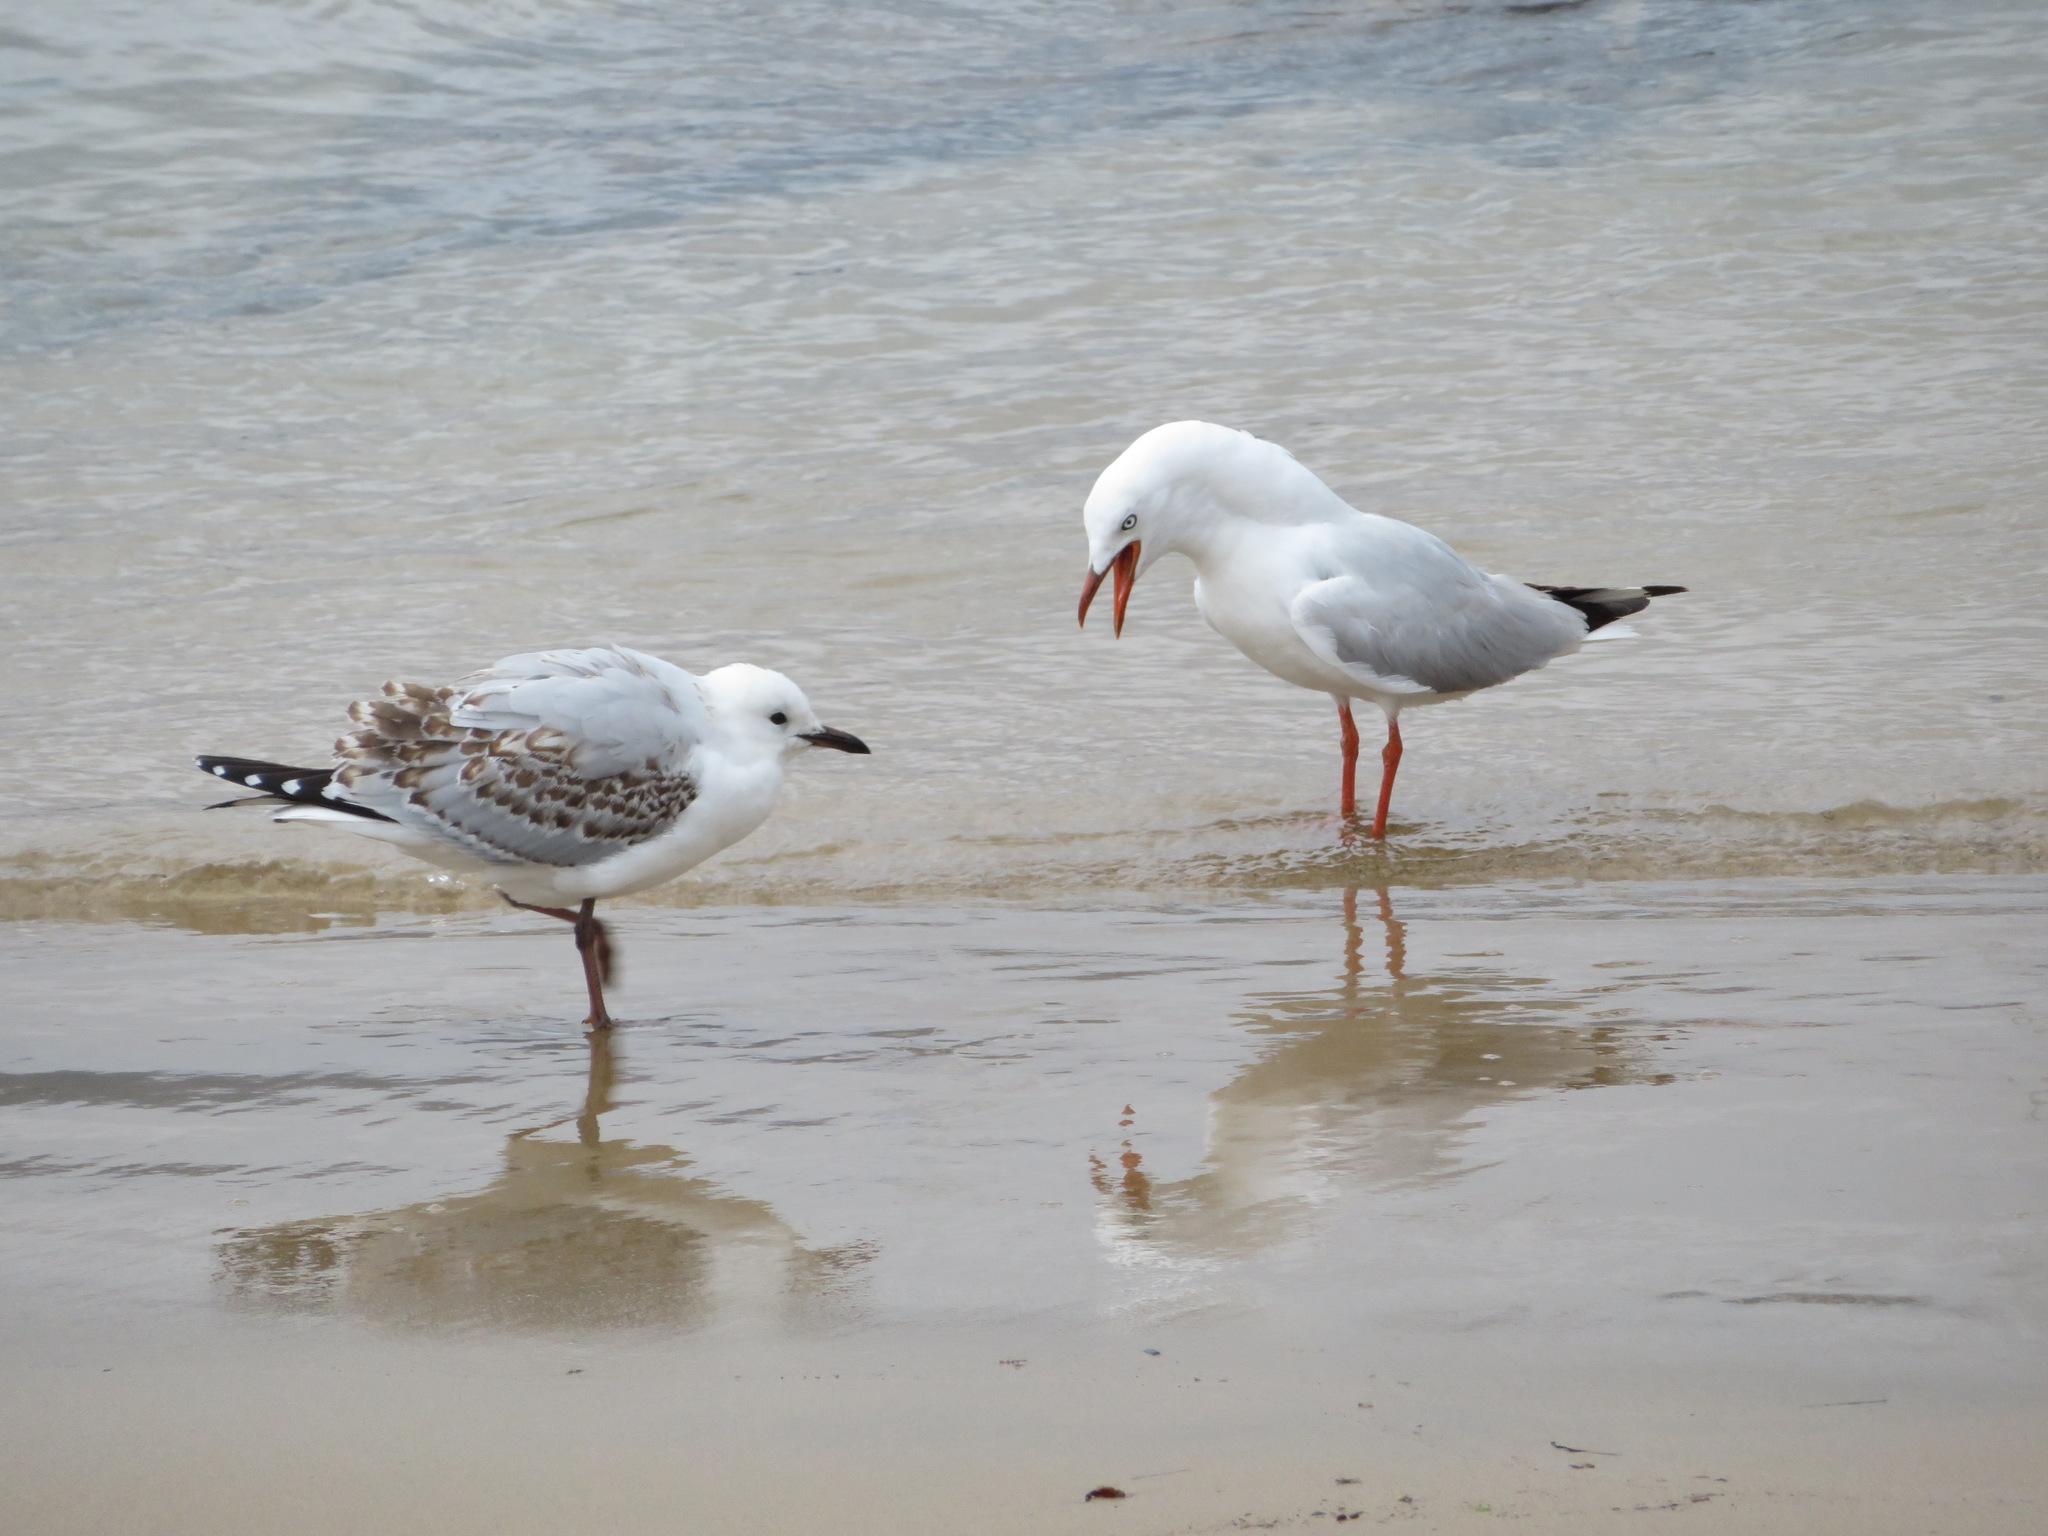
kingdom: Animalia
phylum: Chordata
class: Aves
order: Charadriiformes
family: Laridae
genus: Chroicocephalus
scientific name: Chroicocephalus novaehollandiae
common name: Silver gull
